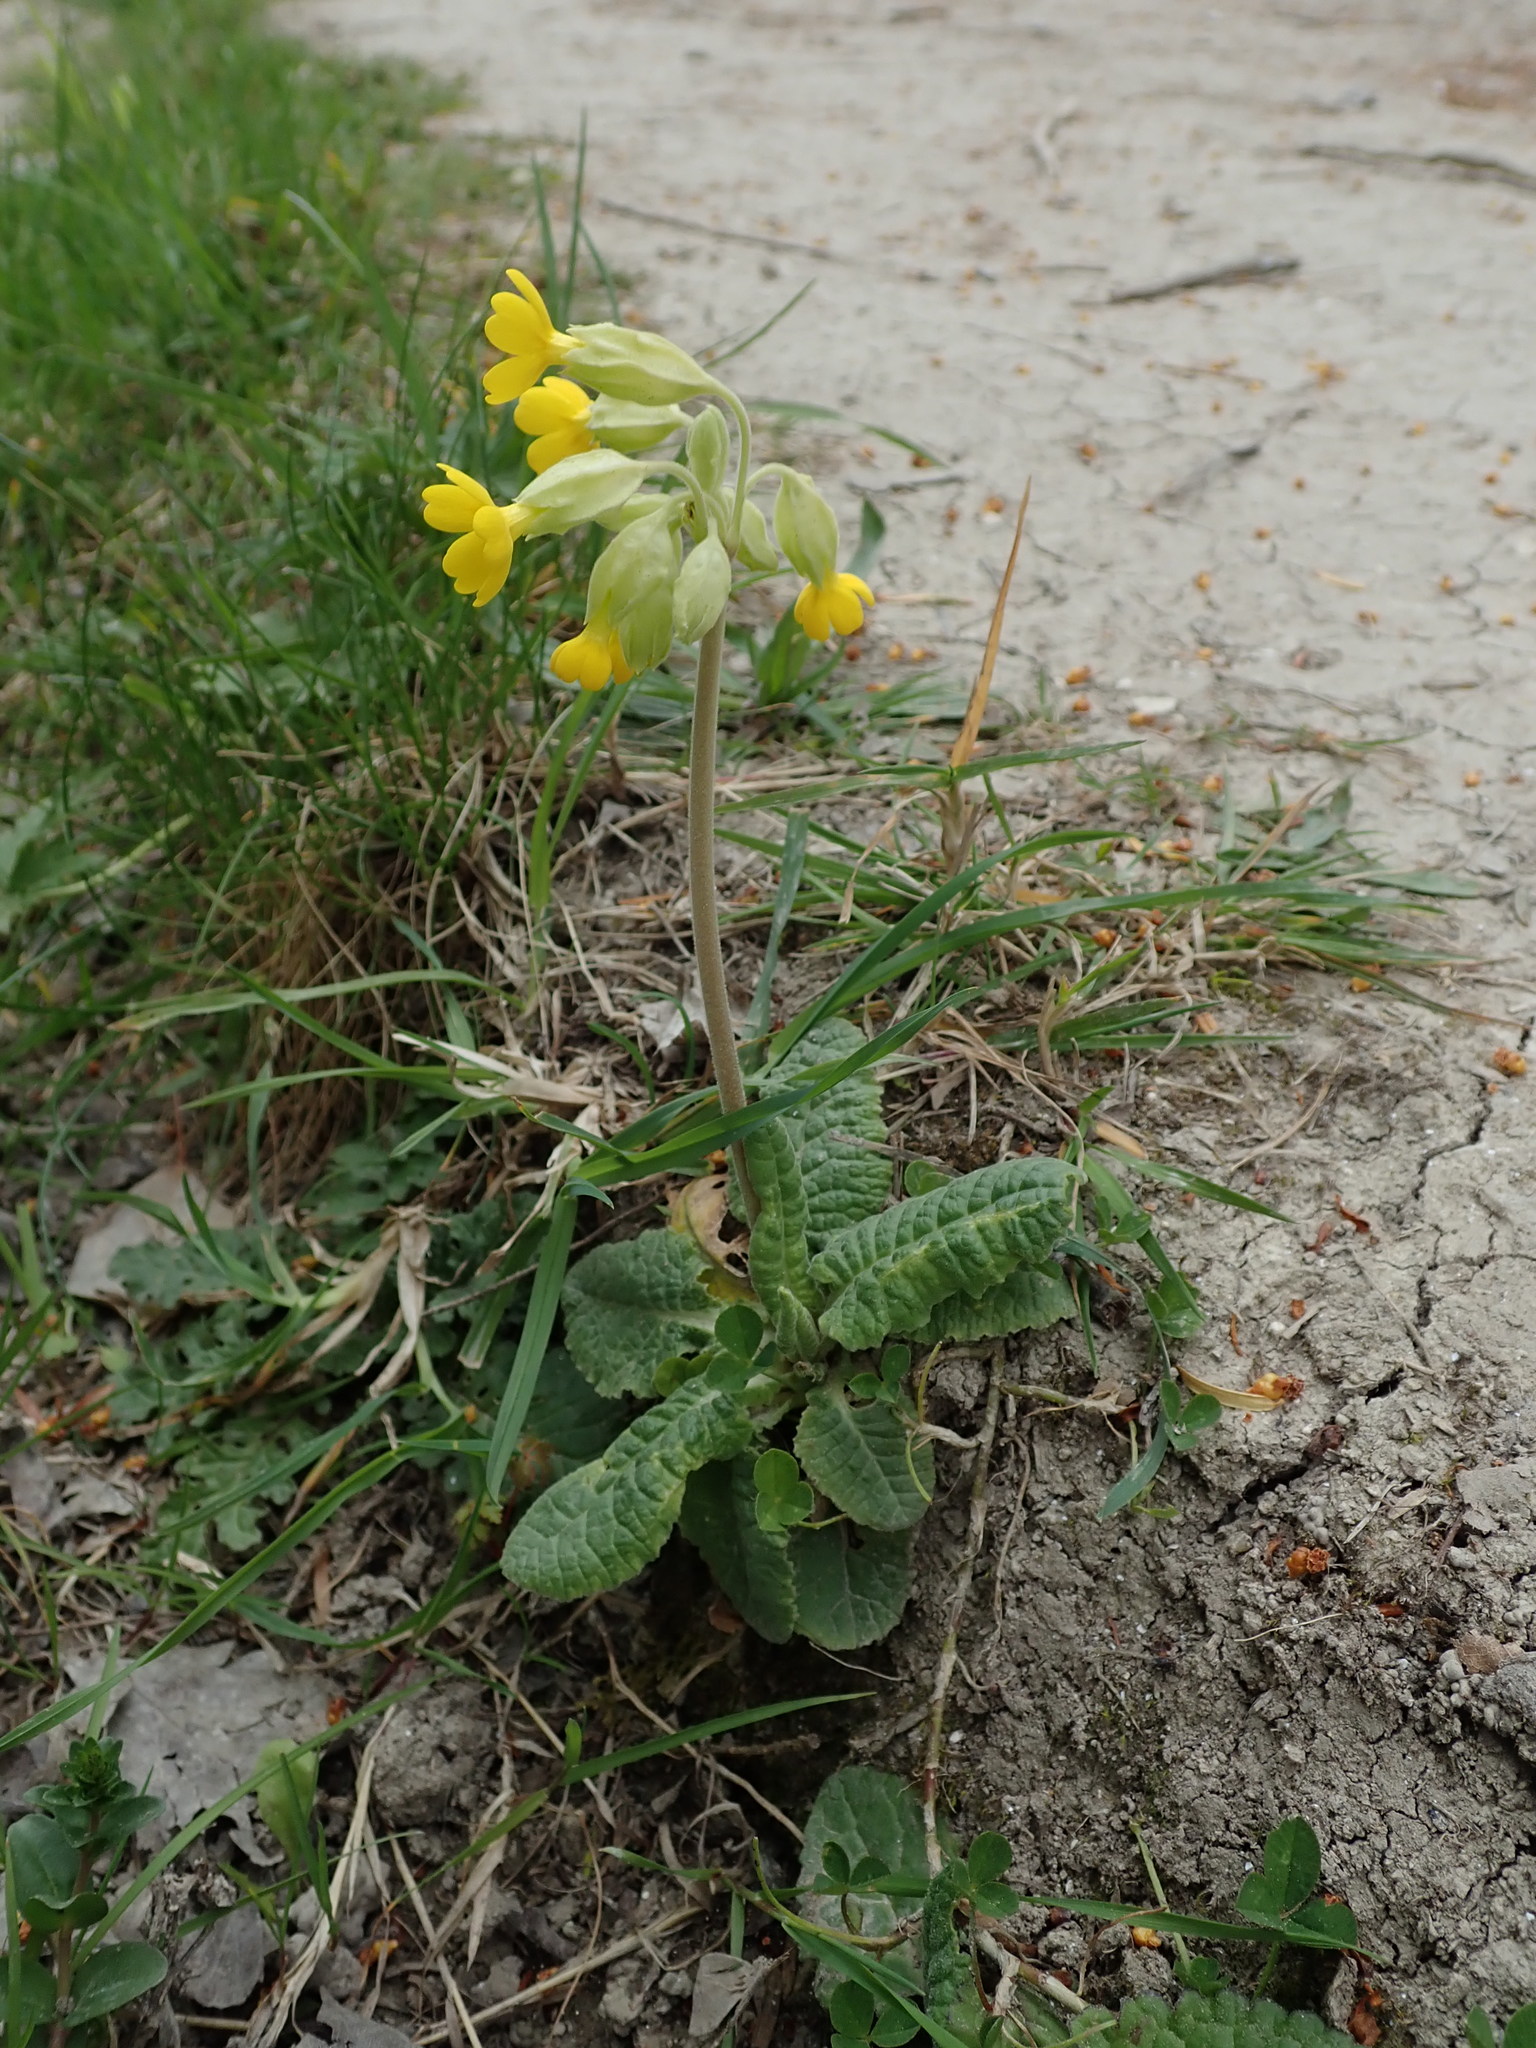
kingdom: Plantae
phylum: Tracheophyta
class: Magnoliopsida
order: Ericales
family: Primulaceae
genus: Primula
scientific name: Primula veris
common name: Cowslip
